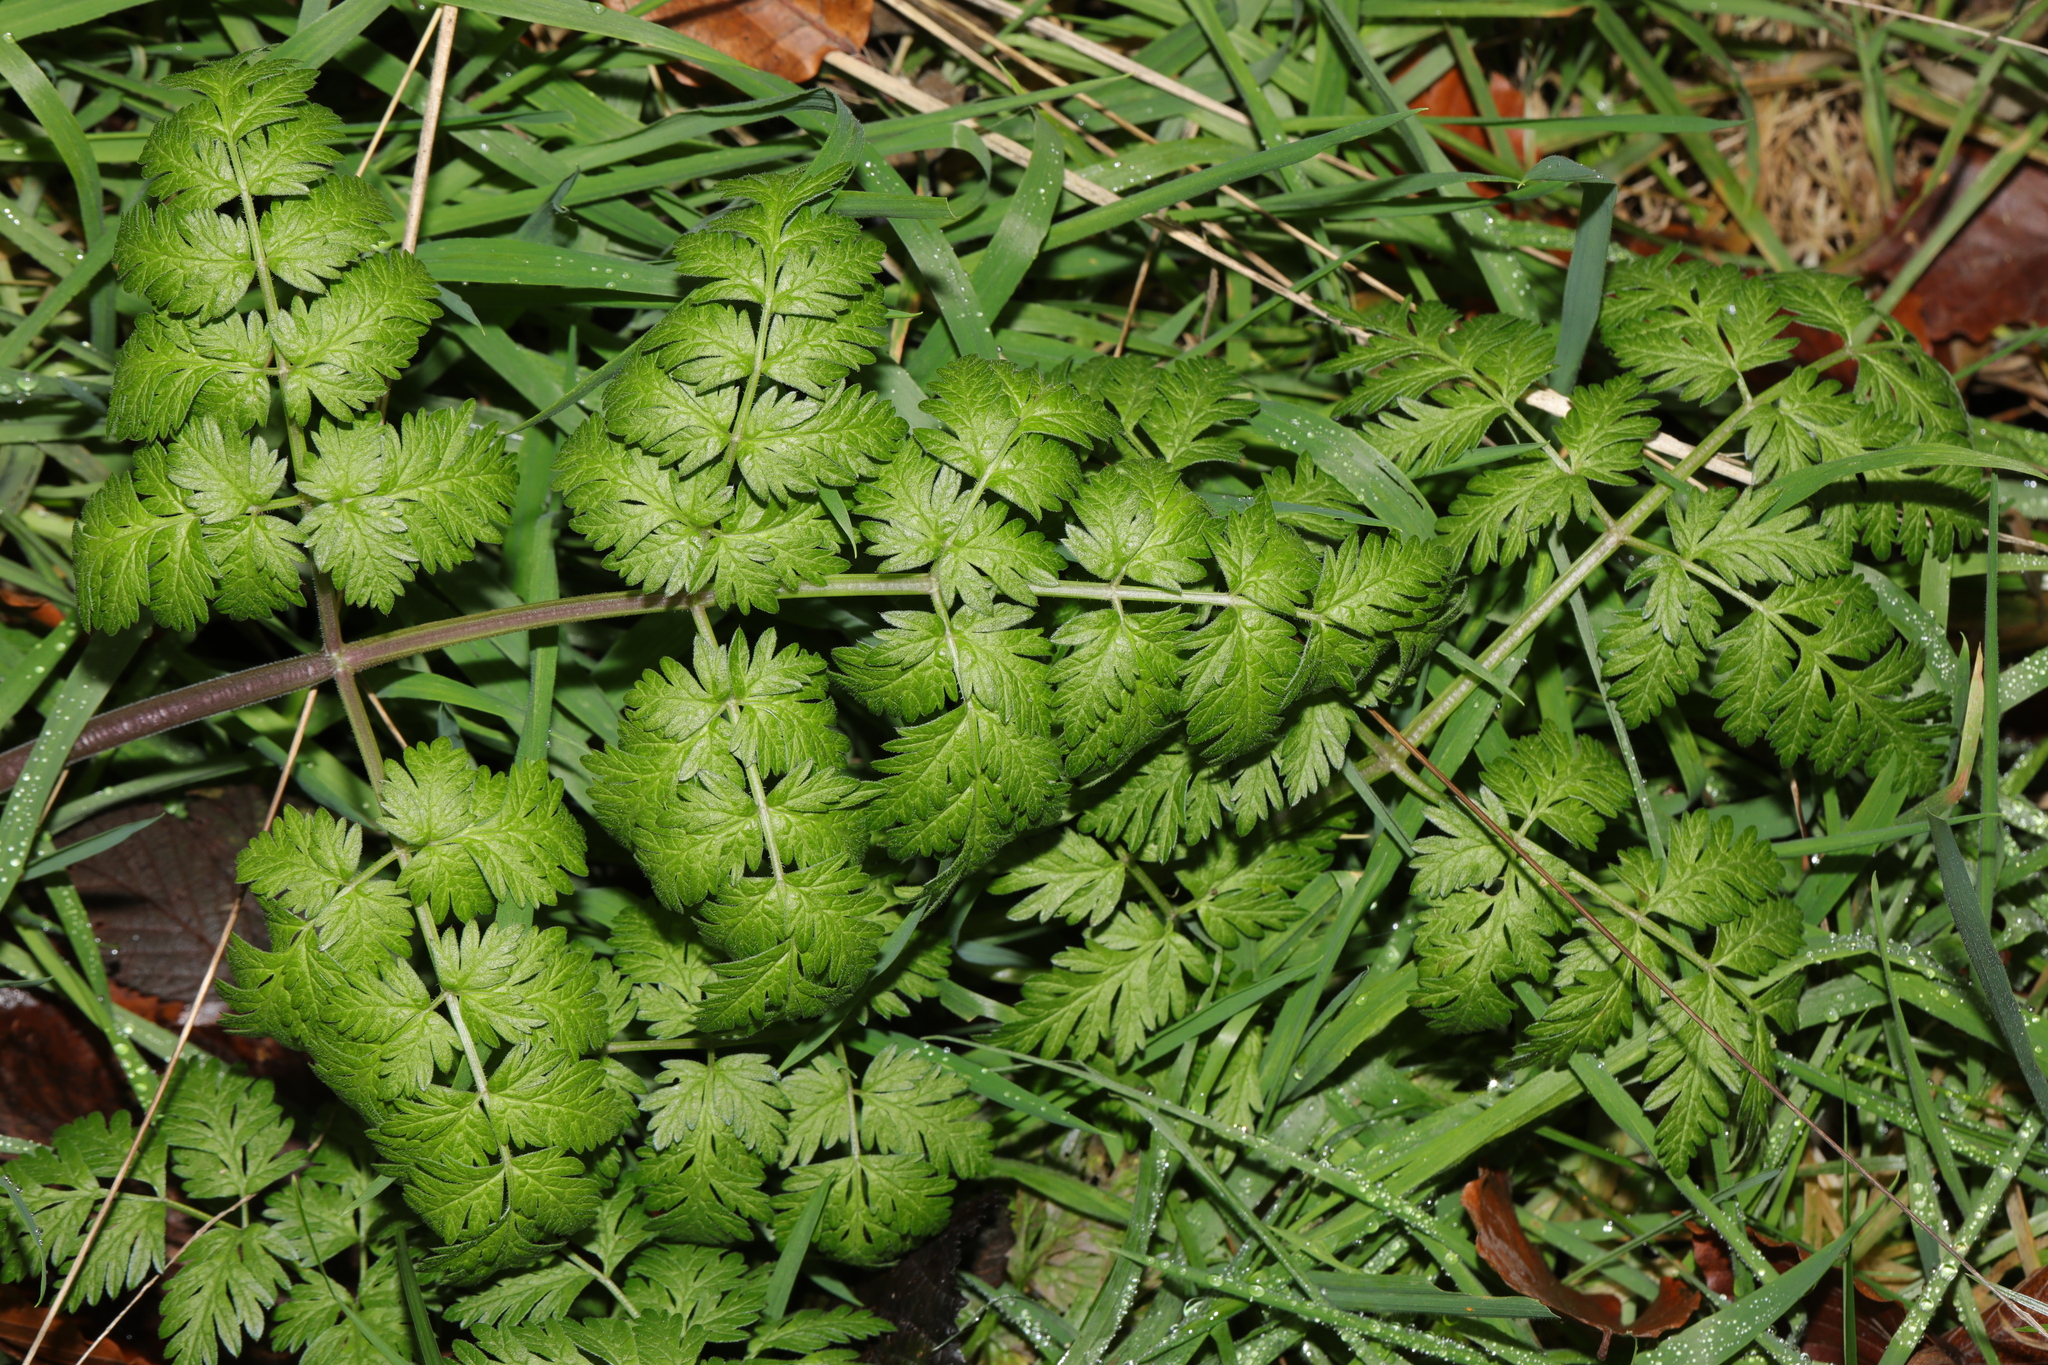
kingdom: Plantae
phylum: Tracheophyta
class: Magnoliopsida
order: Apiales
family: Apiaceae
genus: Anthriscus
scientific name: Anthriscus sylvestris
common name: Cow parsley
